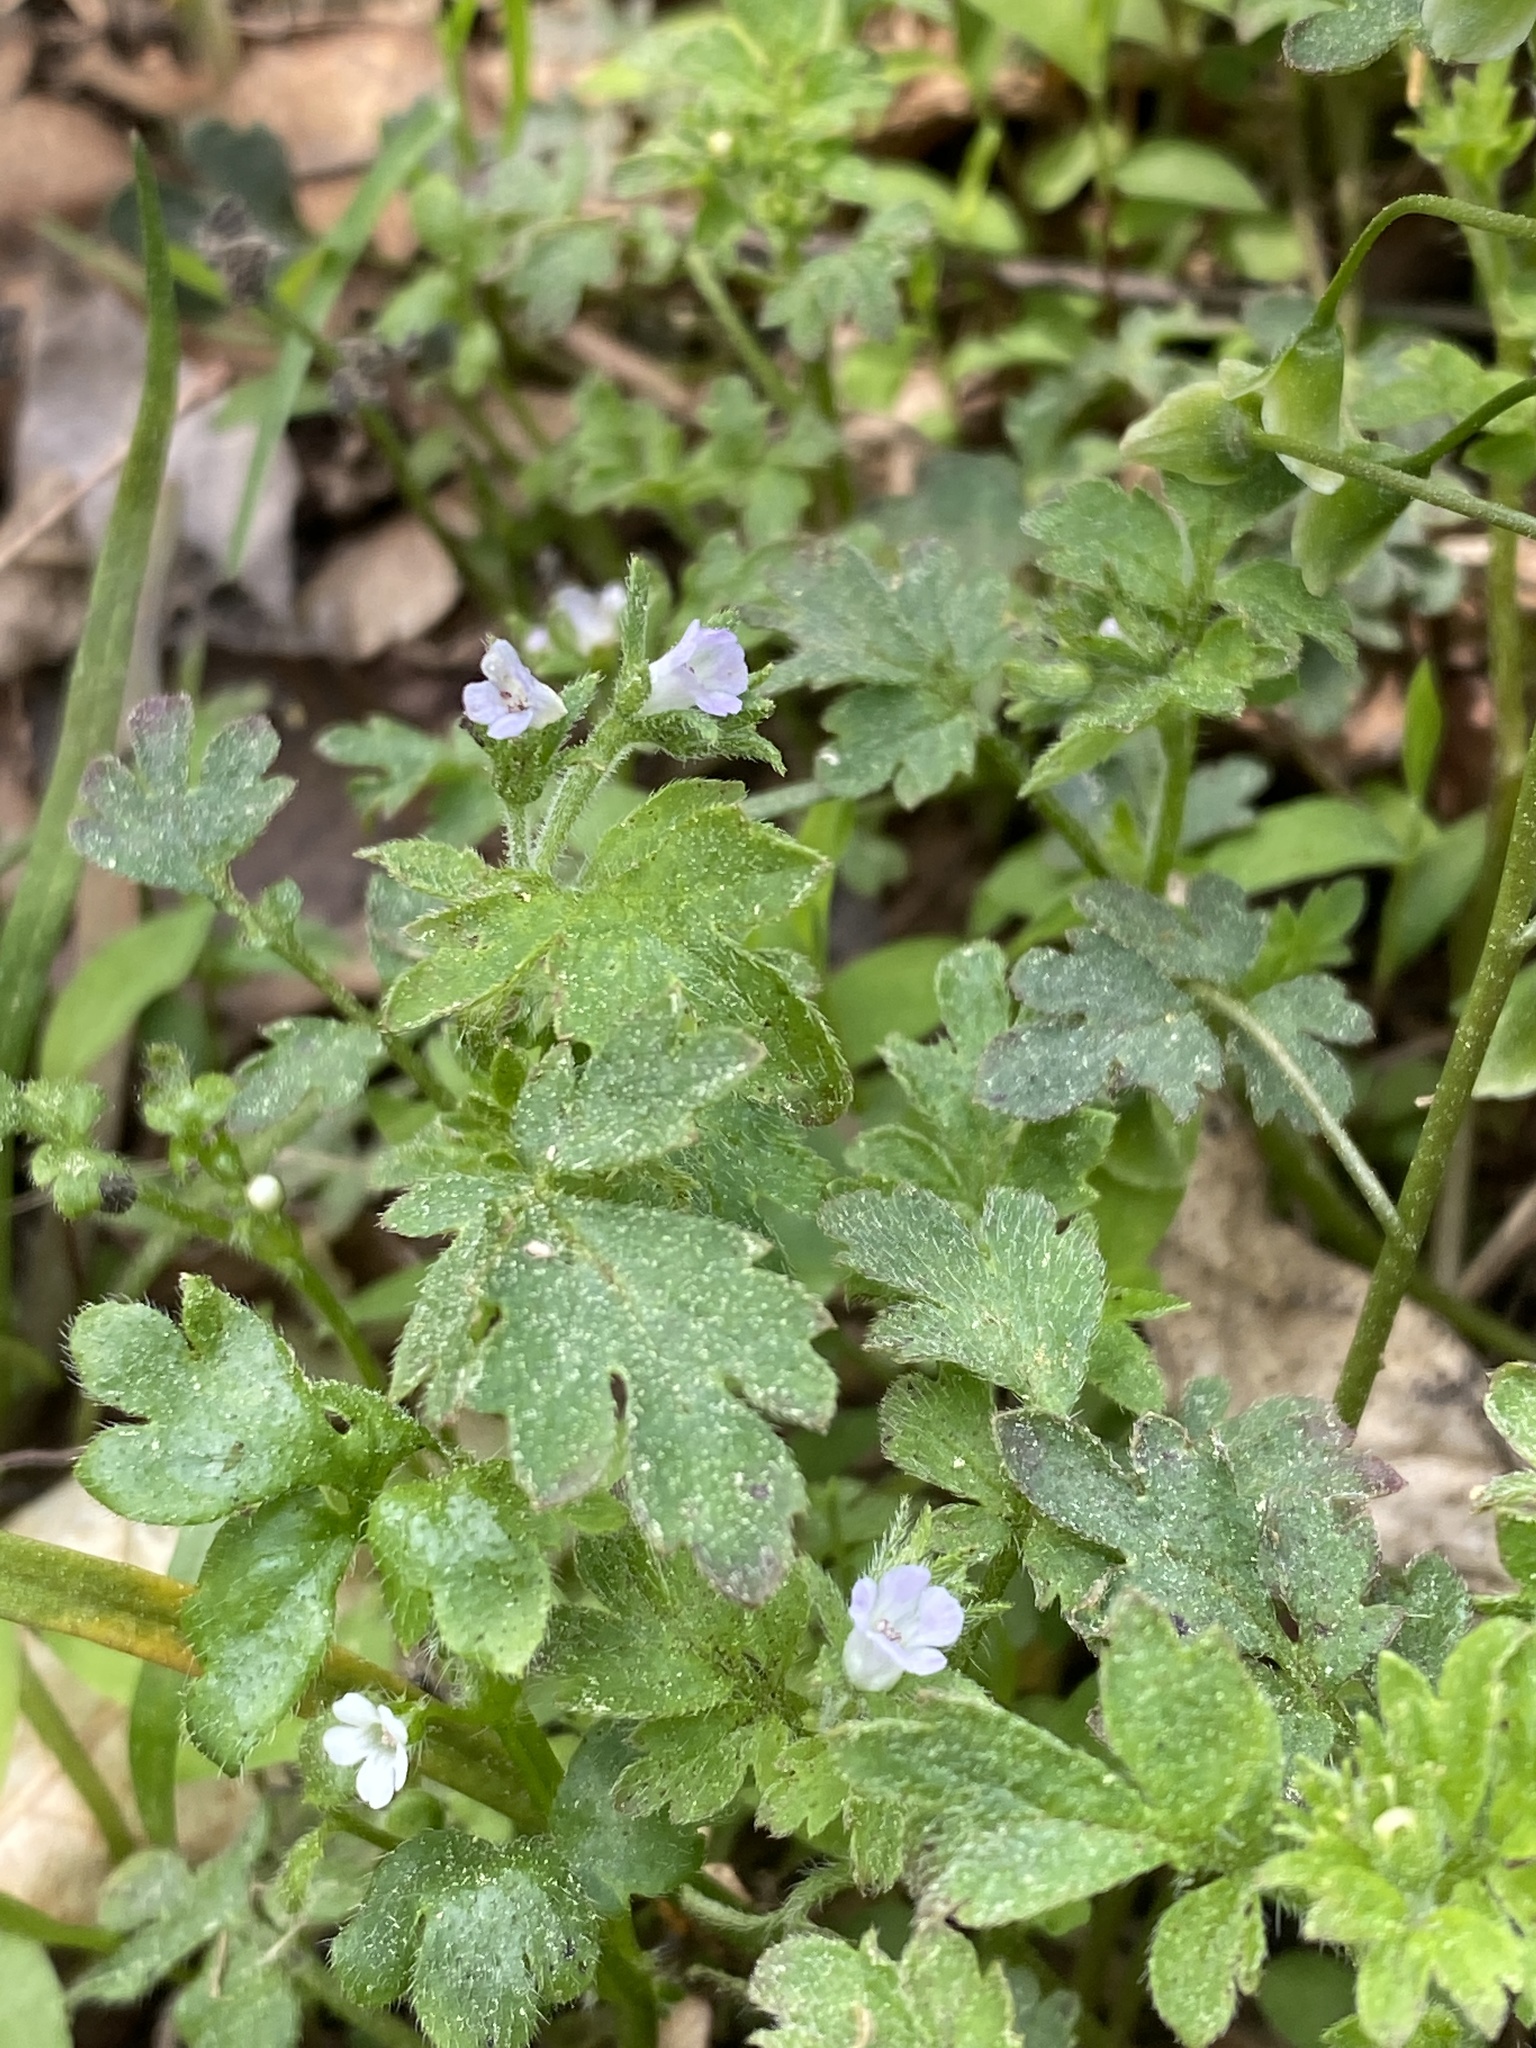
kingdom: Plantae
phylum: Tracheophyta
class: Magnoliopsida
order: Boraginales
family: Hydrophyllaceae
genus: Phacelia
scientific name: Phacelia covillei
